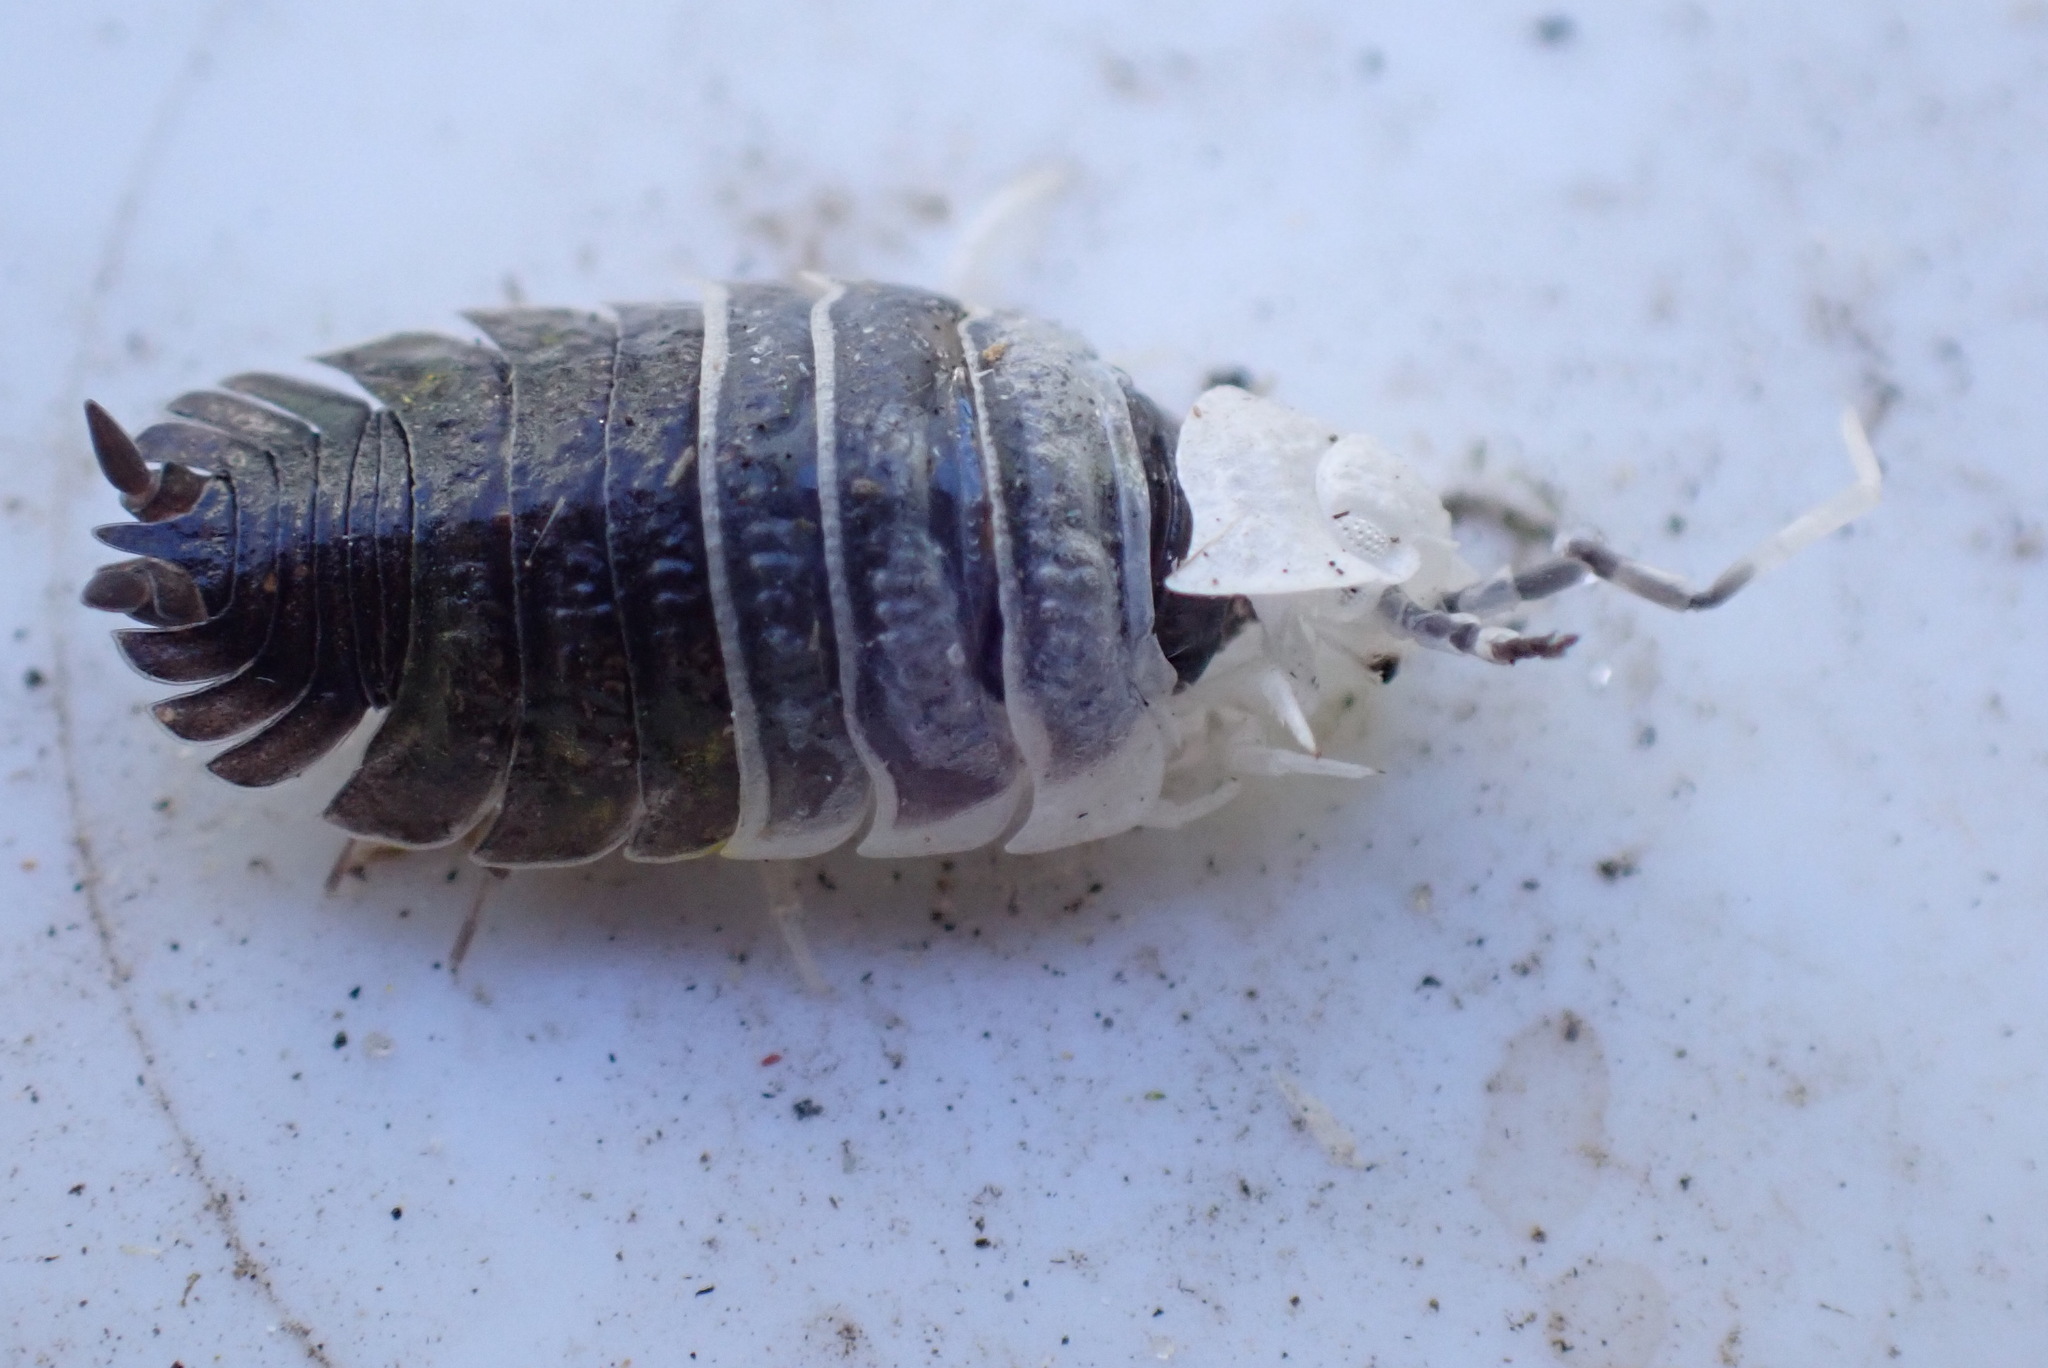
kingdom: Animalia
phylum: Arthropoda
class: Malacostraca
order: Isopoda
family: Porcellionidae
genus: Porcellio
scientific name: Porcellio scaber
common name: Common rough woodlouse
